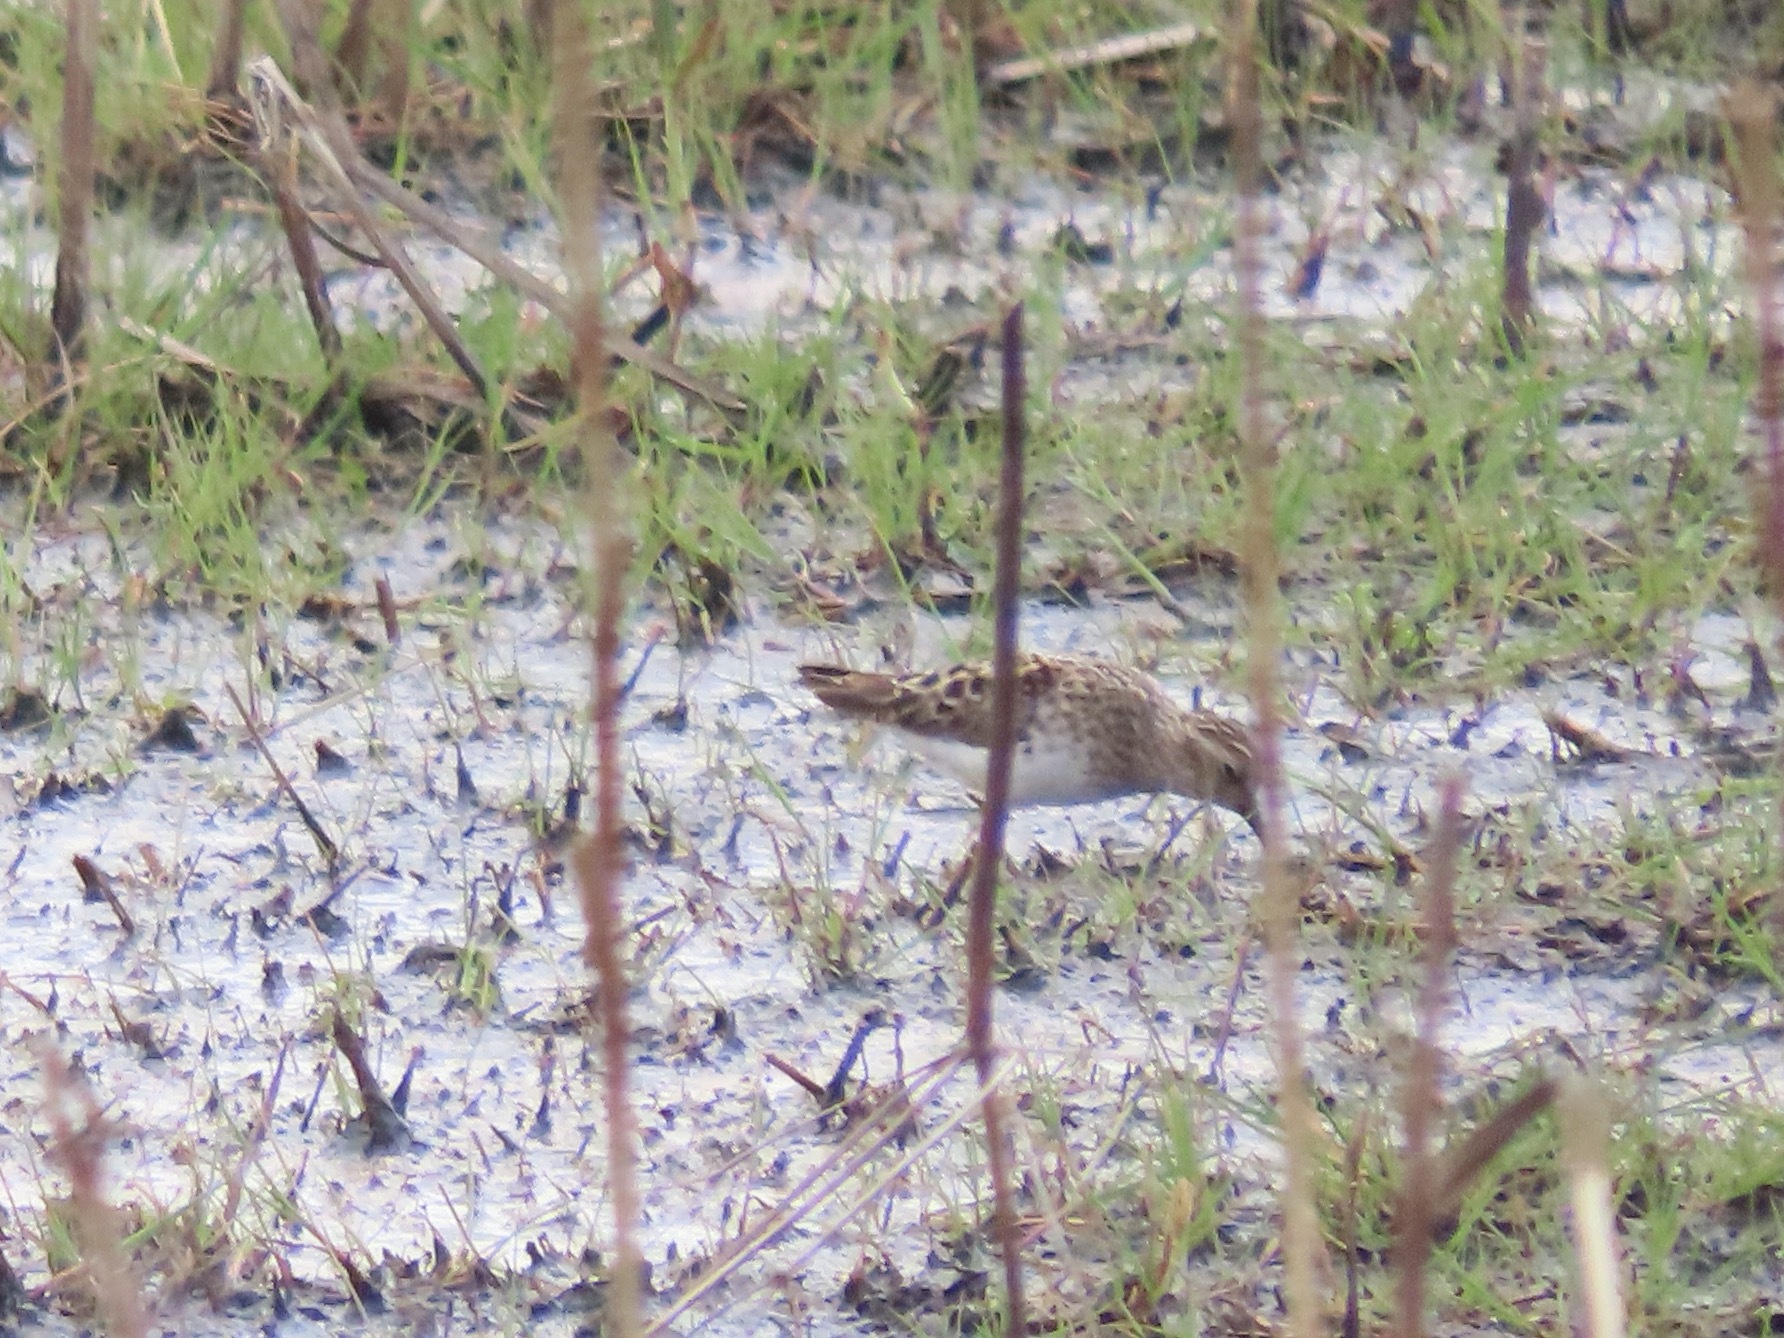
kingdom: Animalia
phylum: Chordata
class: Aves
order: Charadriiformes
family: Scolopacidae
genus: Calidris
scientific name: Calidris minutilla
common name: Least sandpiper
